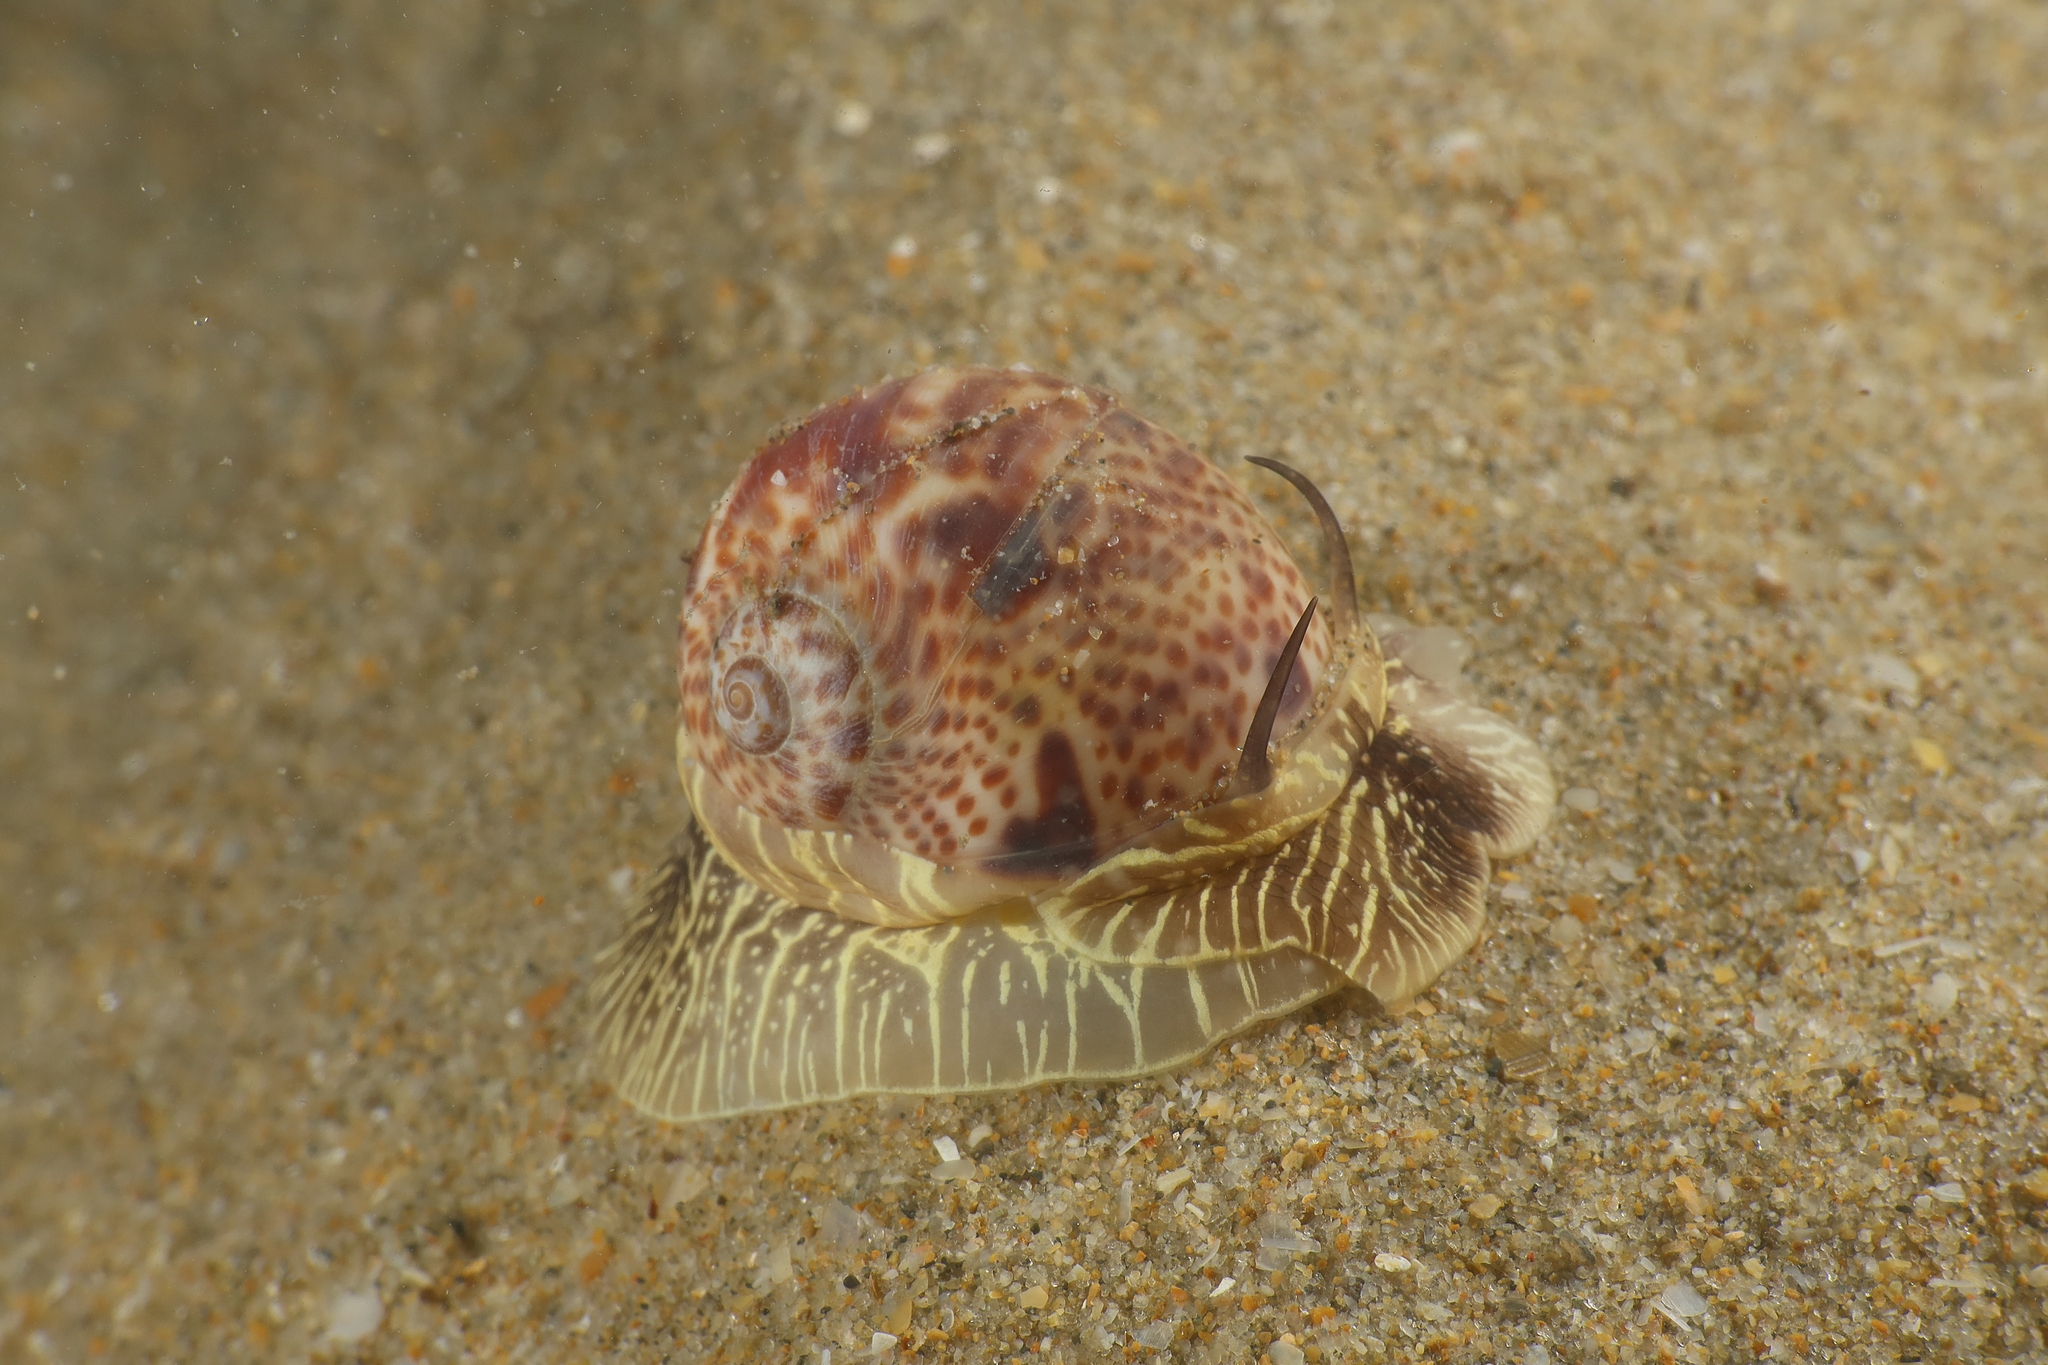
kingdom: Animalia
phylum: Mollusca
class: Gastropoda
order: Littorinimorpha
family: Naticidae
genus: Naticarius
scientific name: Naticarius hebraeus
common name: Hebrew moon shell
